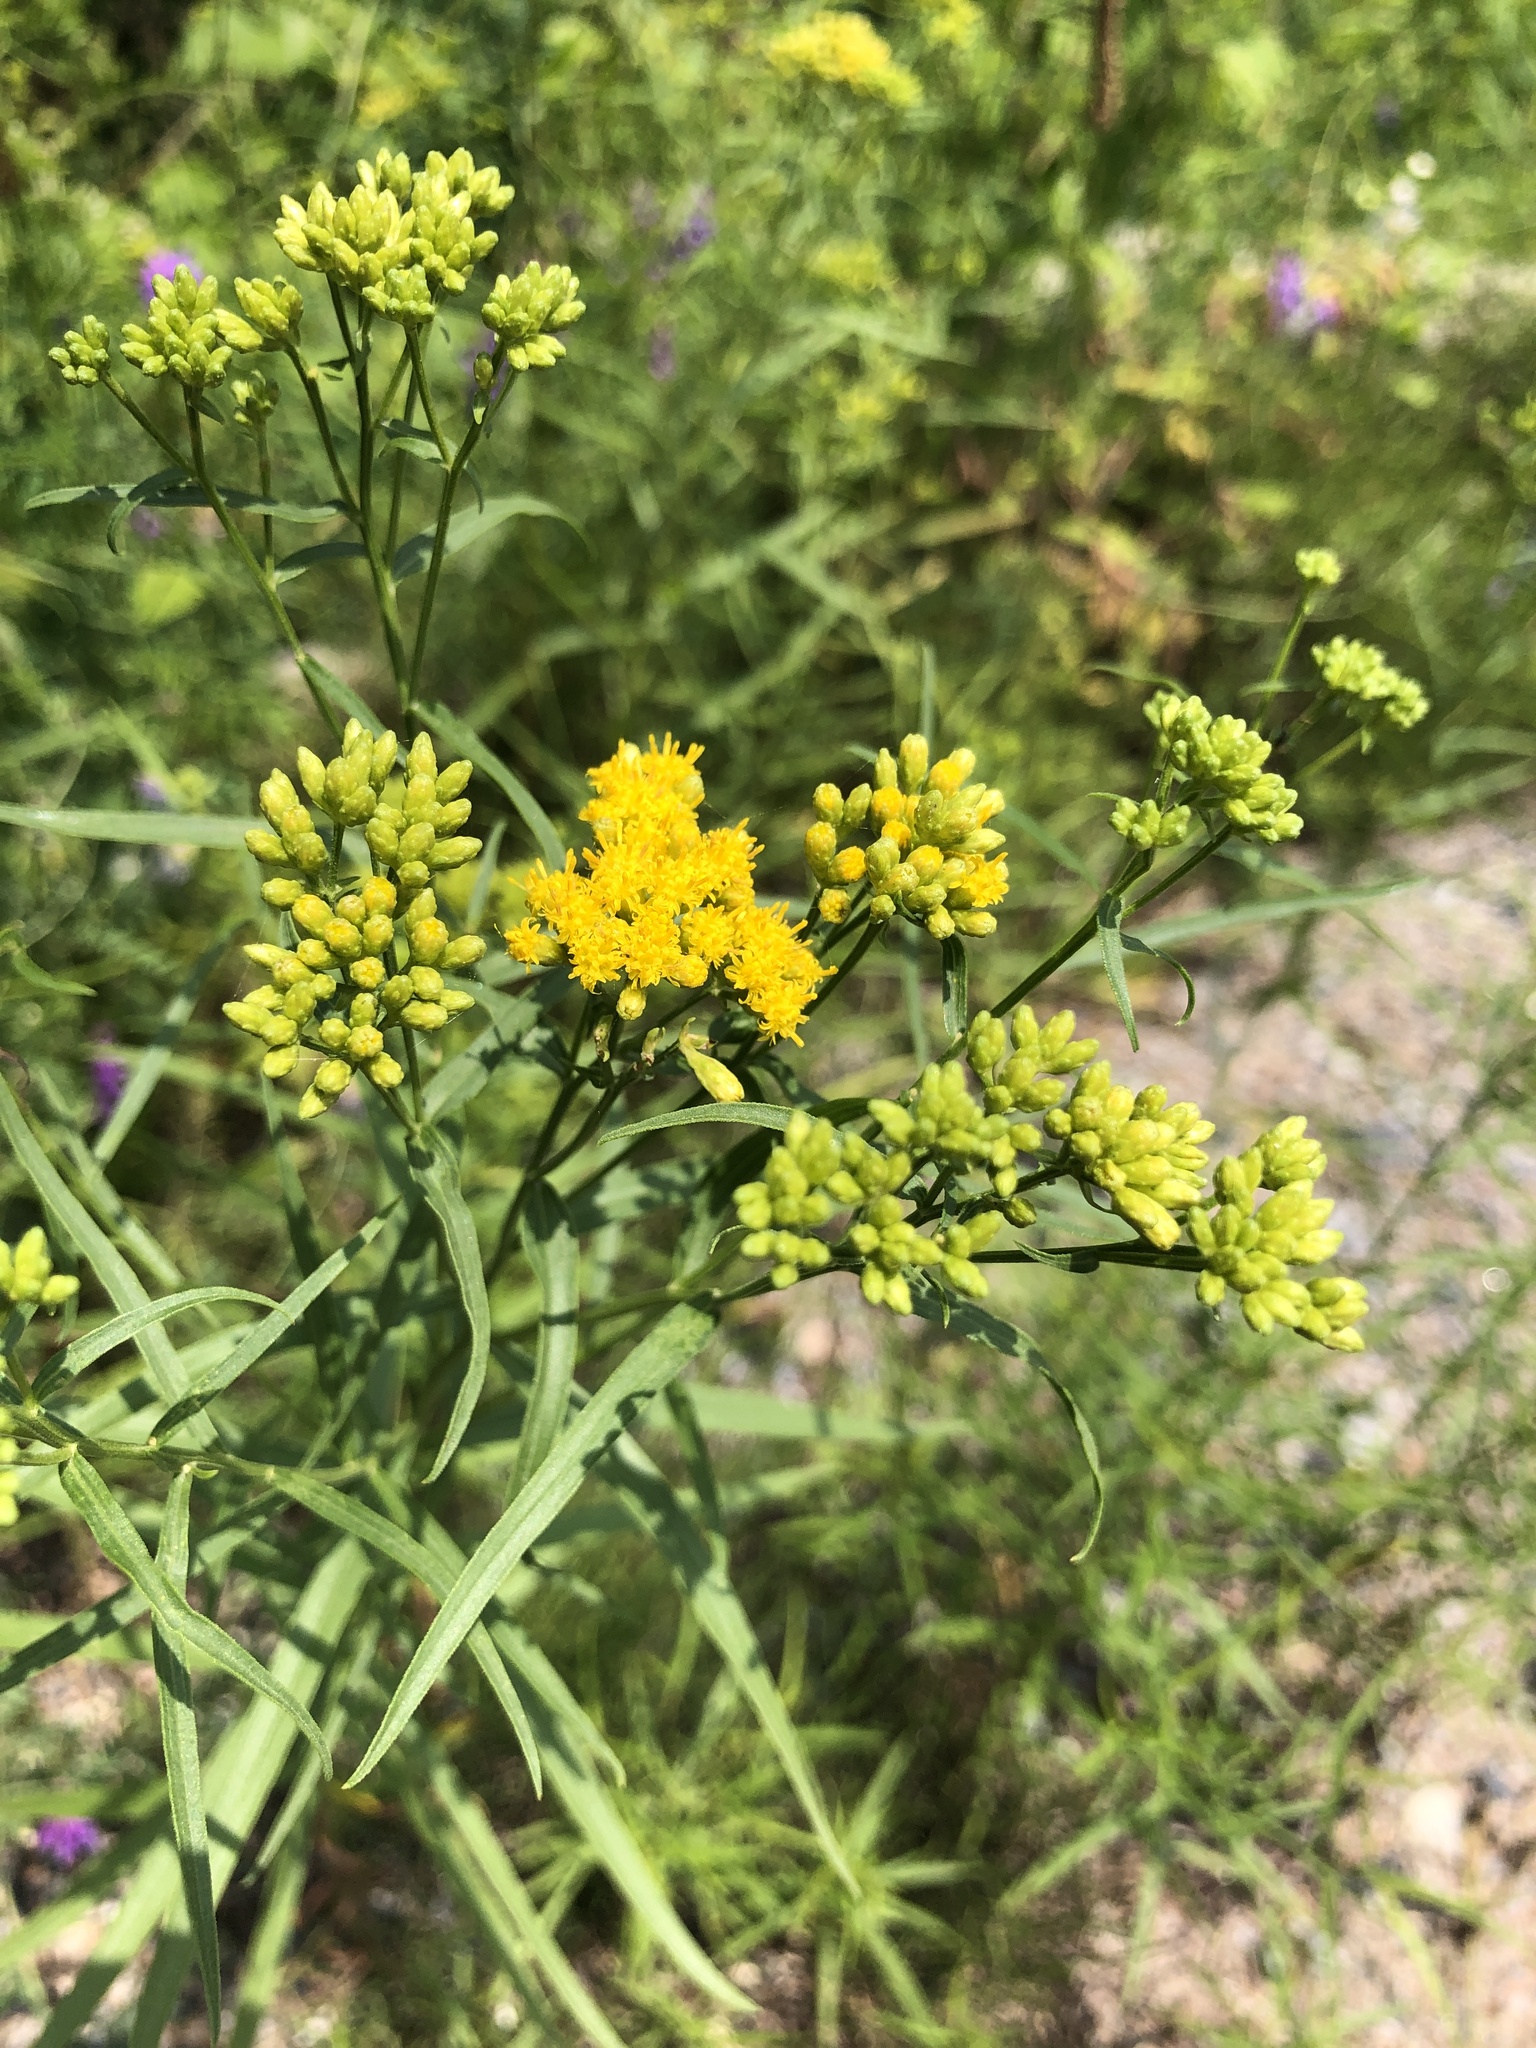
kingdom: Plantae
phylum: Tracheophyta
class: Magnoliopsida
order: Asterales
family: Asteraceae
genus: Euthamia
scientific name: Euthamia graminifolia
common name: Common goldentop
